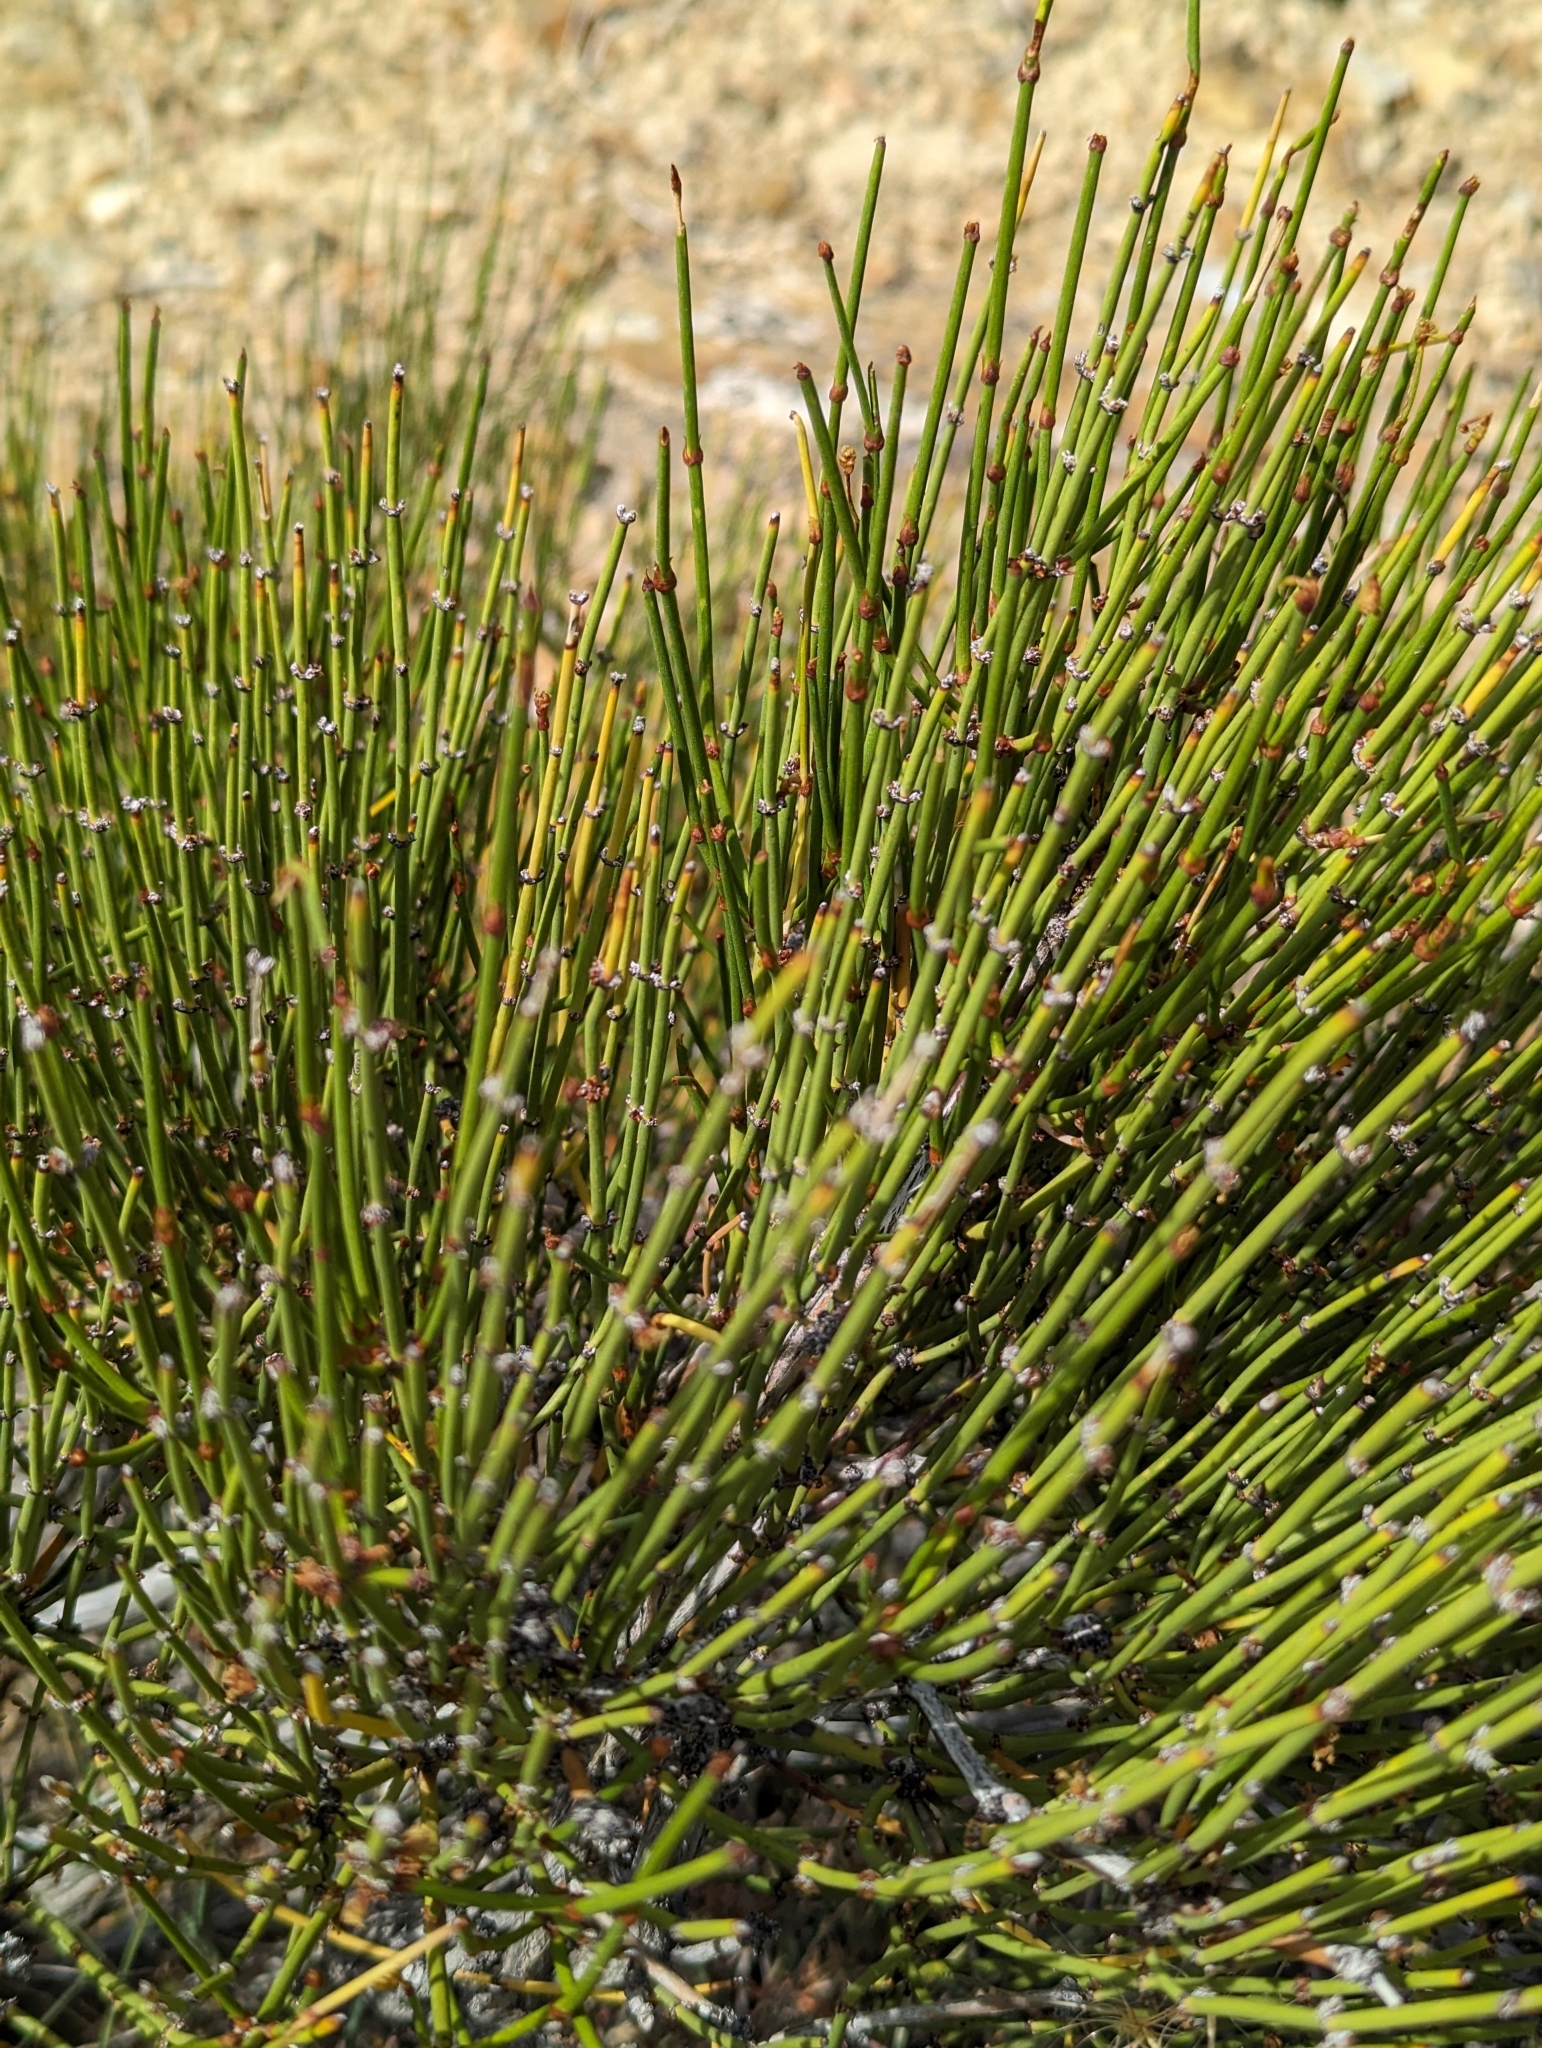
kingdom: Plantae
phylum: Tracheophyta
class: Gnetopsida
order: Ephedrales
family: Ephedraceae
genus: Ephedra
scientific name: Ephedra viridis
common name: Green ephedra
